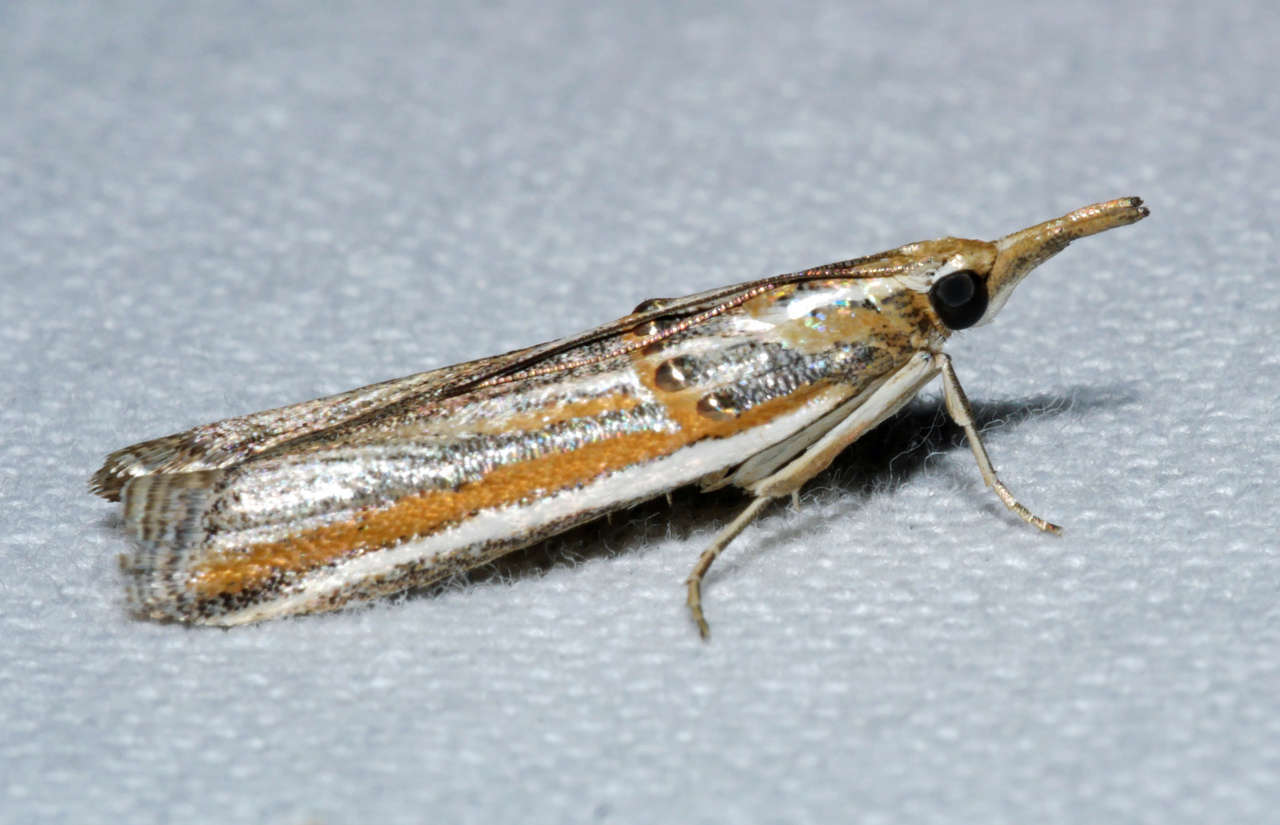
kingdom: Animalia
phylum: Arthropoda
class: Insecta
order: Lepidoptera
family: Pyralidae
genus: Etiella
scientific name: Etiella chrysoporella
